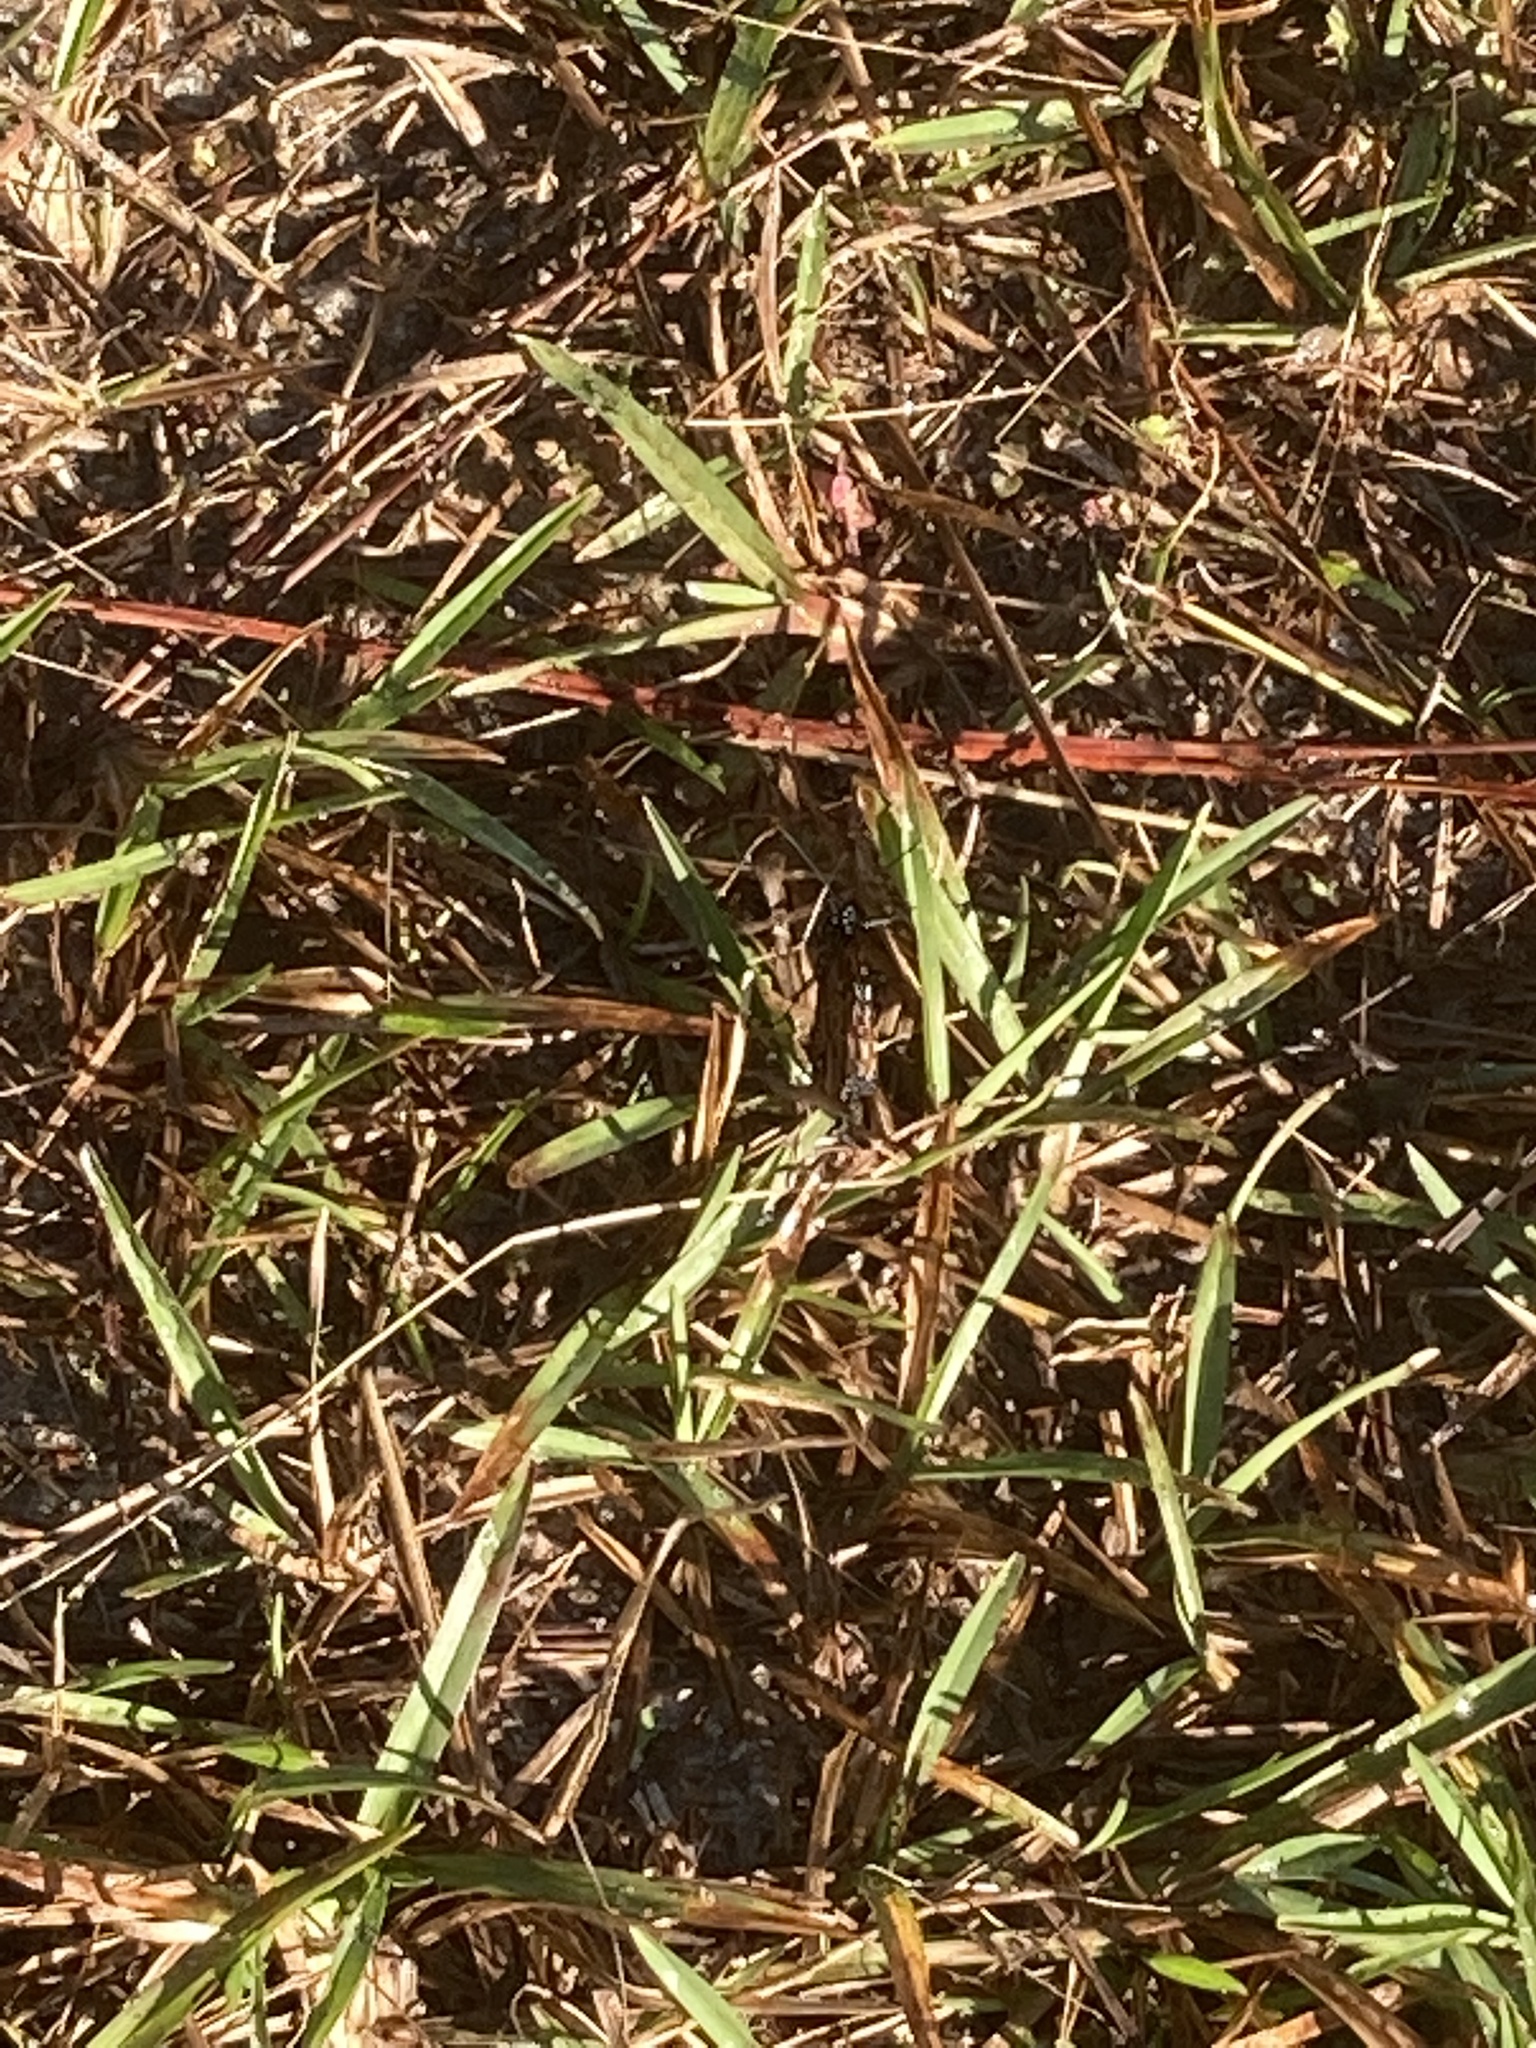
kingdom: Animalia
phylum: Arthropoda
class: Insecta
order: Lepidoptera
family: Nymphalidae
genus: Danaus
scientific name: Danaus gilippus
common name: Queen
